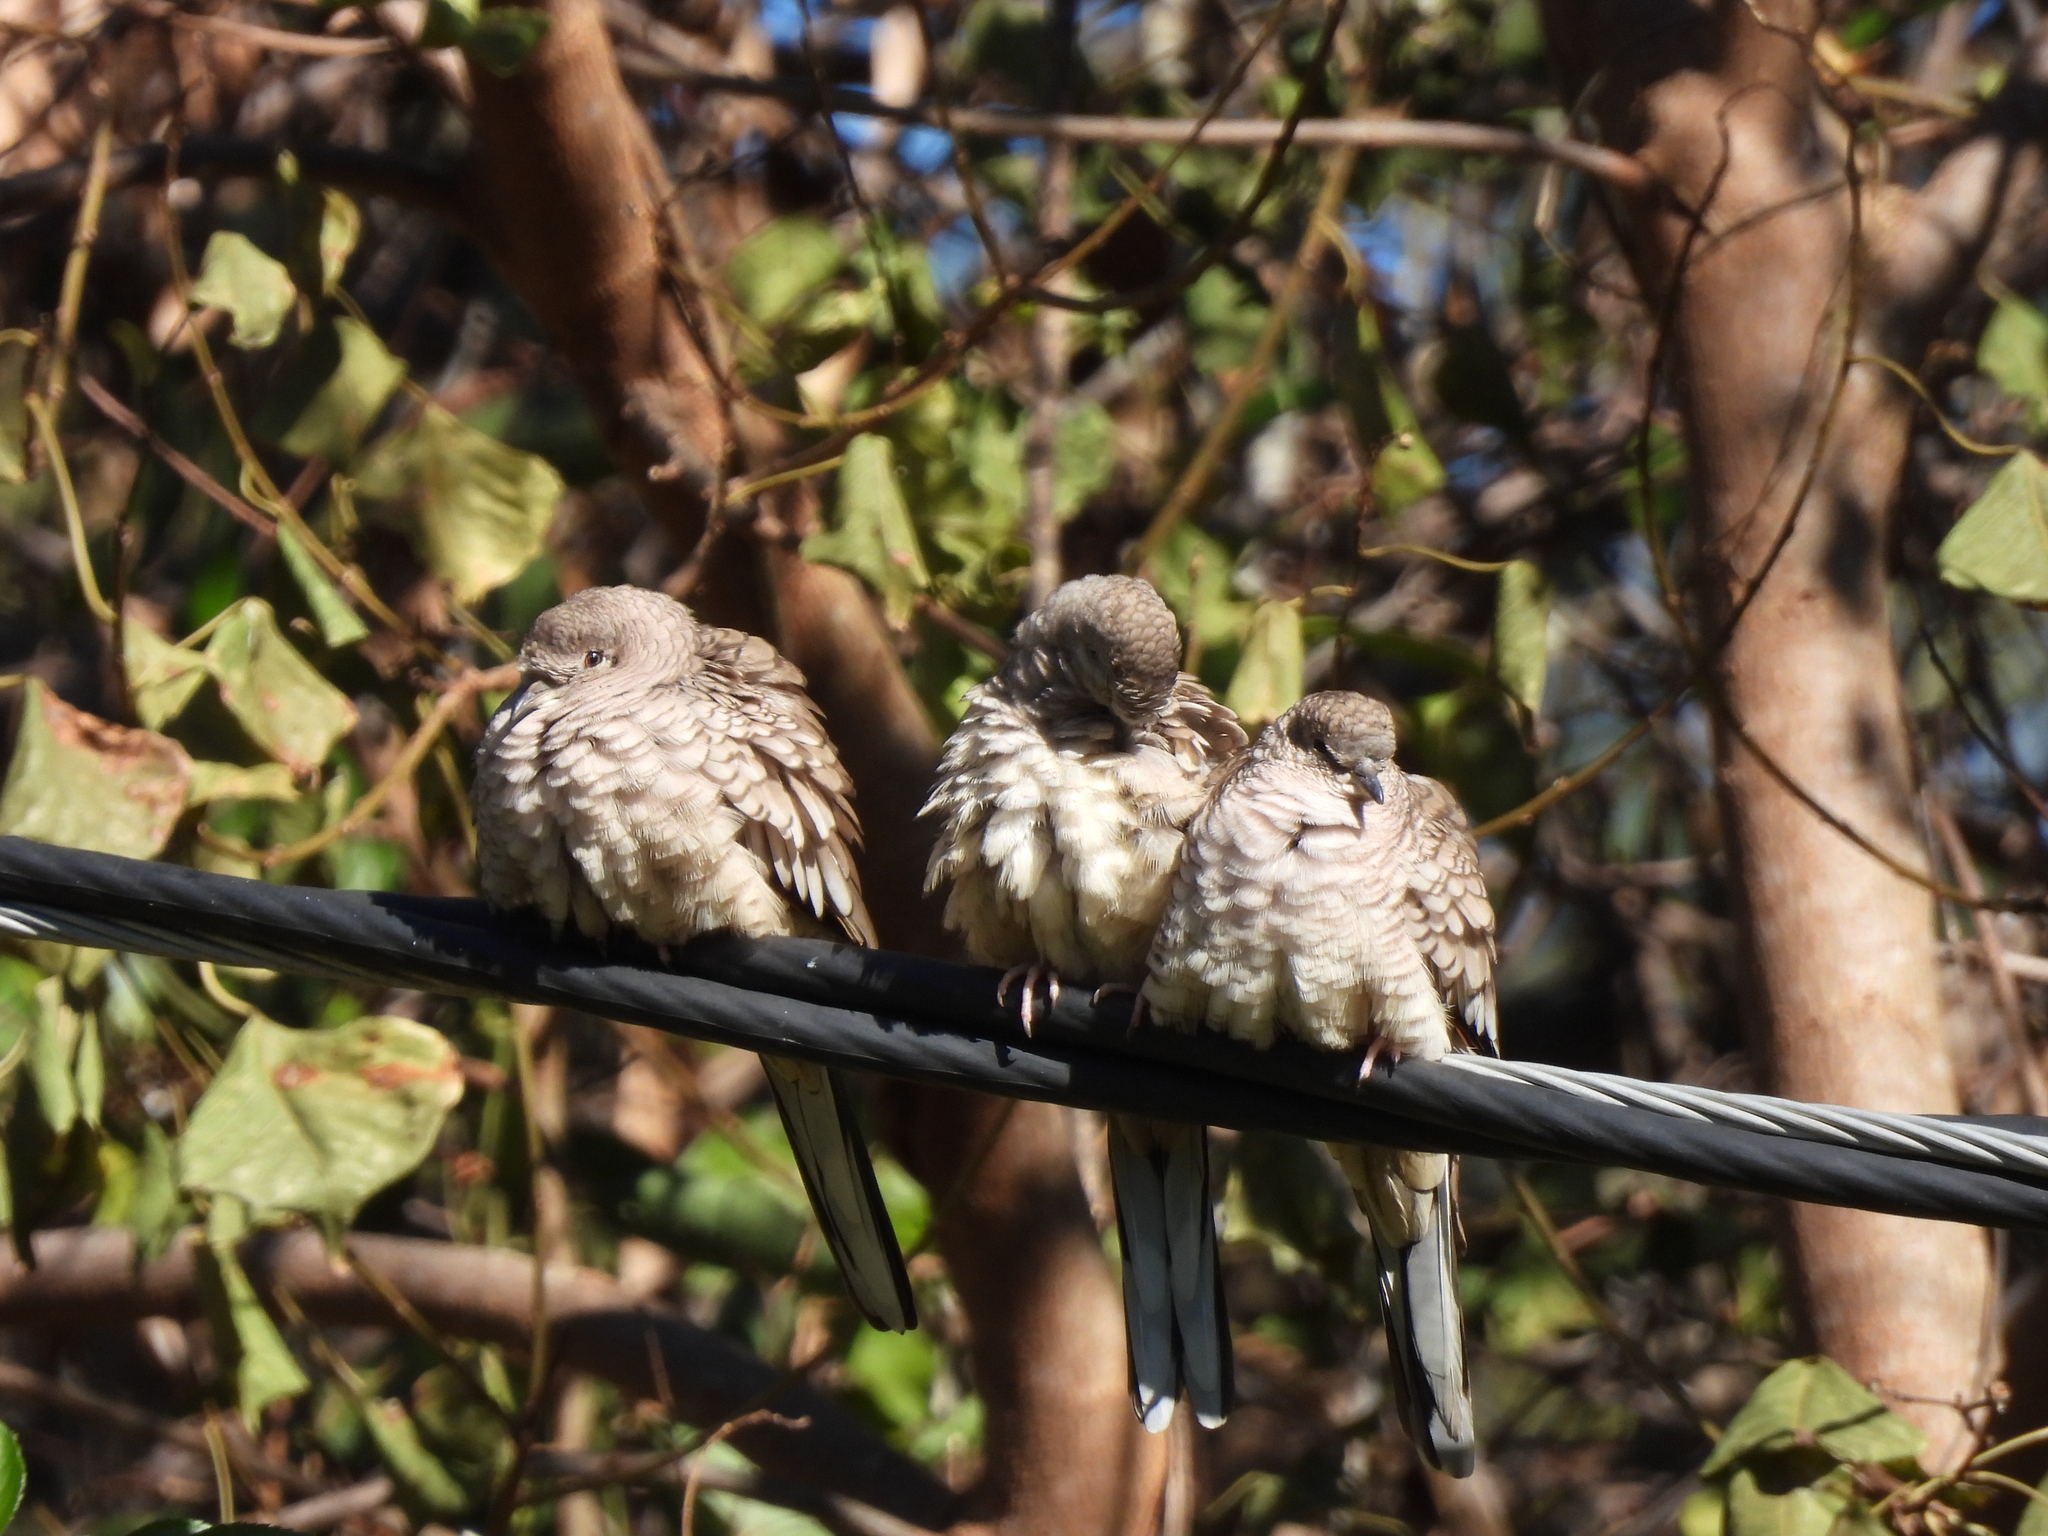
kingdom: Animalia
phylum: Chordata
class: Aves
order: Columbiformes
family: Columbidae
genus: Columbina
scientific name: Columbina inca
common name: Inca dove
